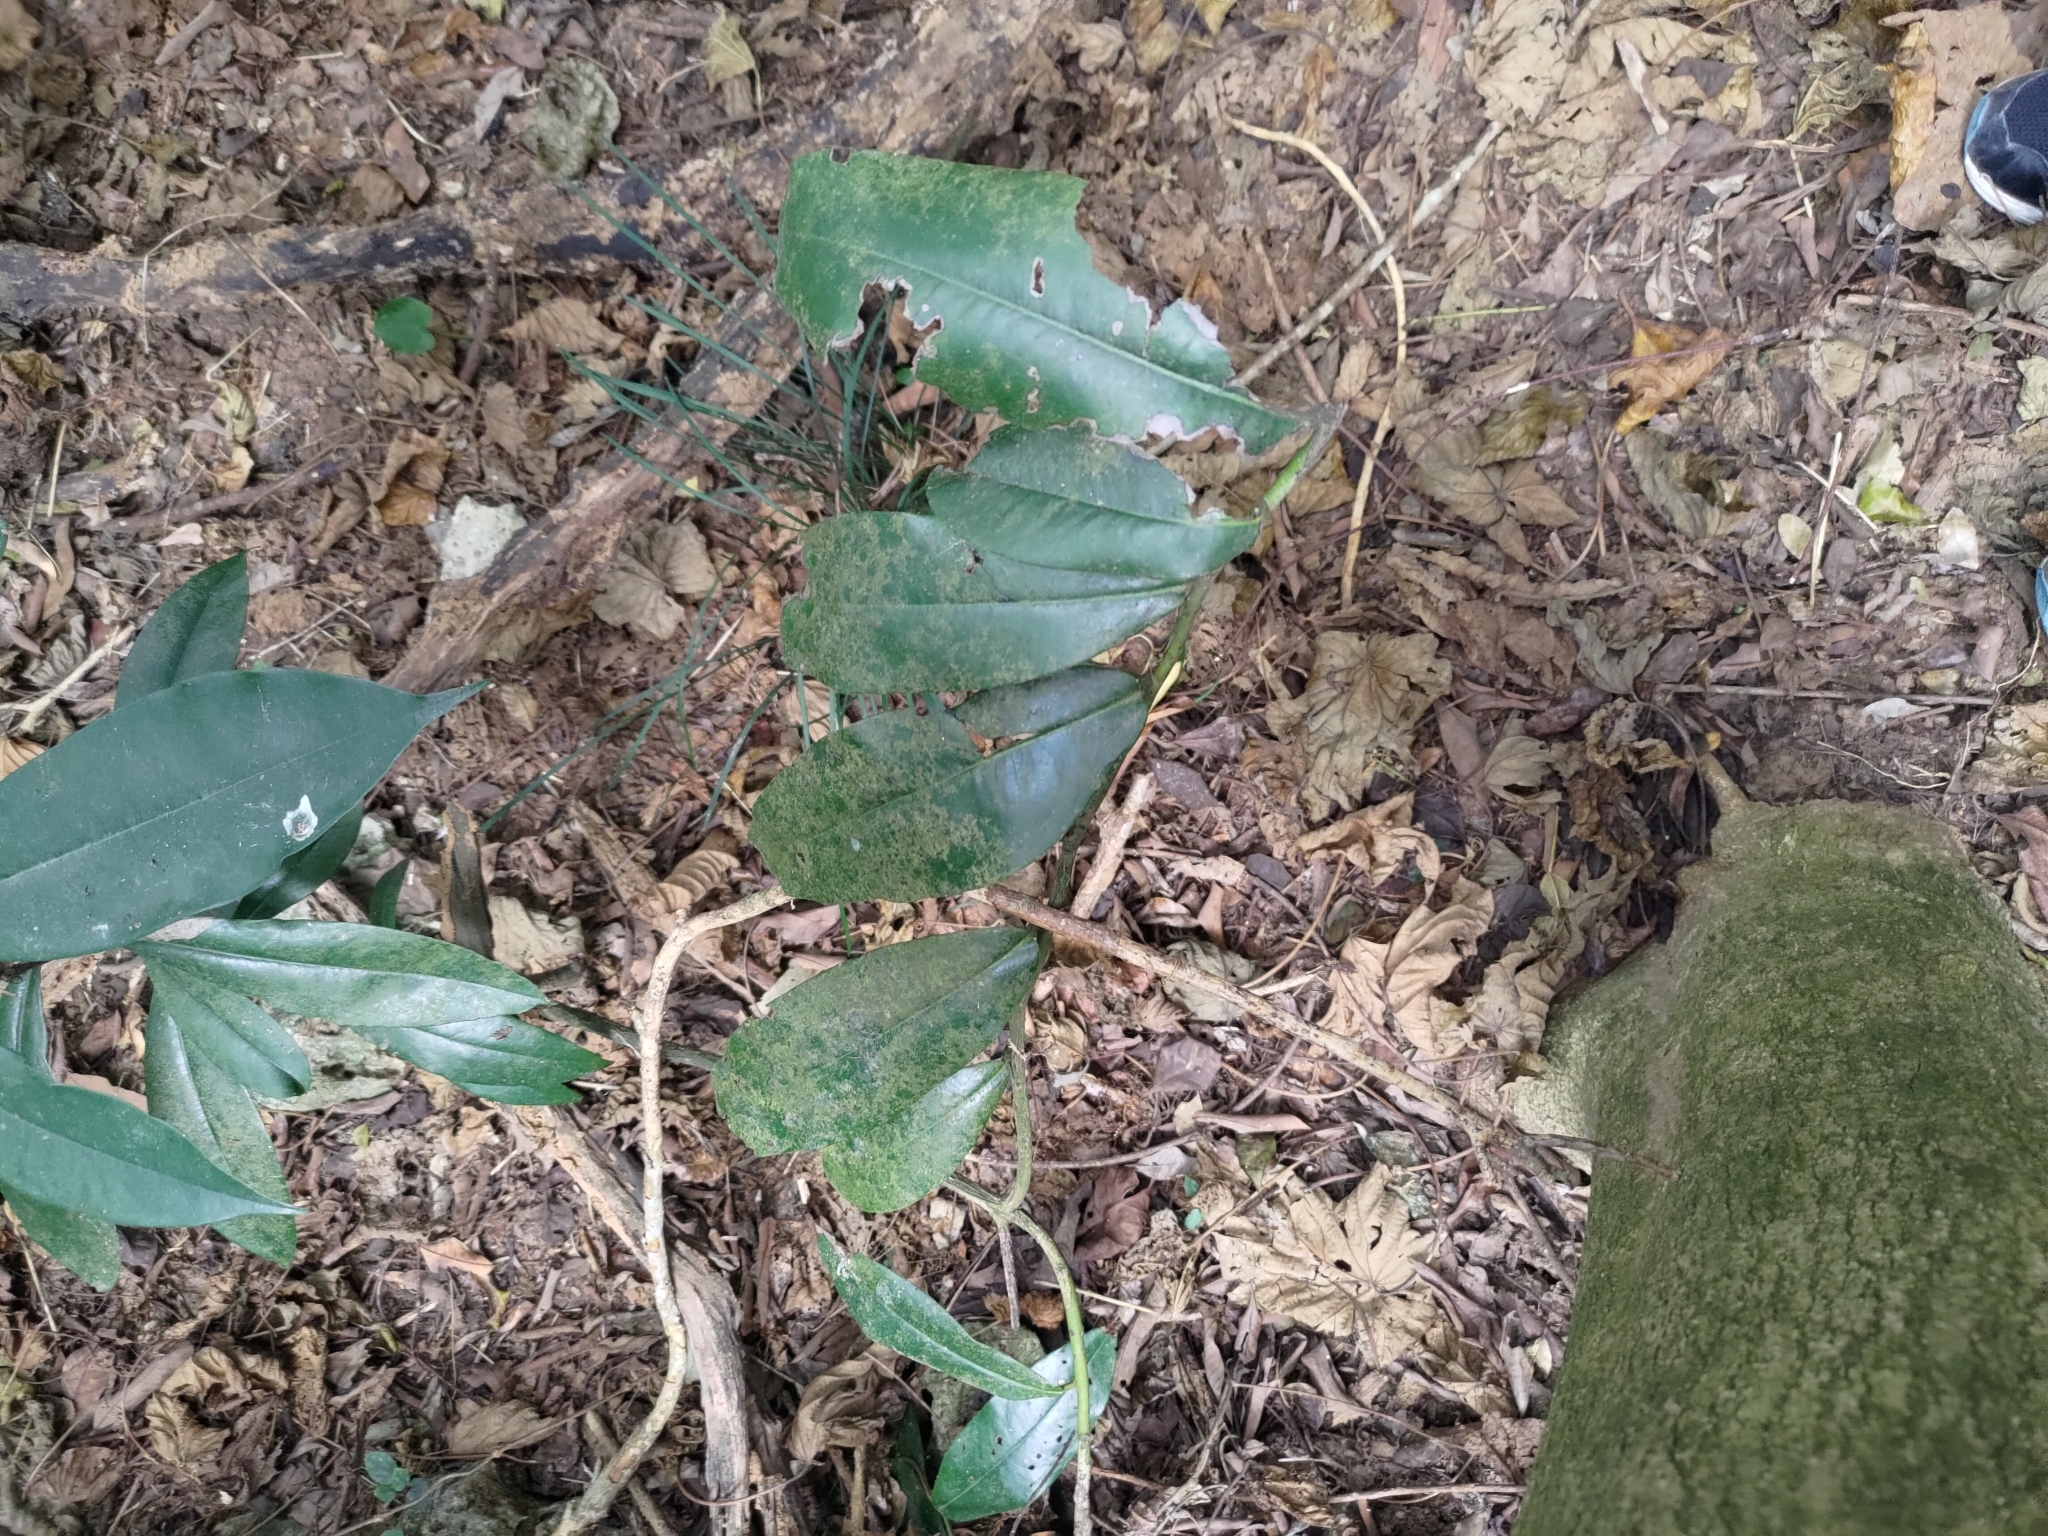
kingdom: Plantae
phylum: Tracheophyta
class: Magnoliopsida
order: Ericales
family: Ebenaceae
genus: Diospyros
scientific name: Diospyros blancoi
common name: Mabola-tree
